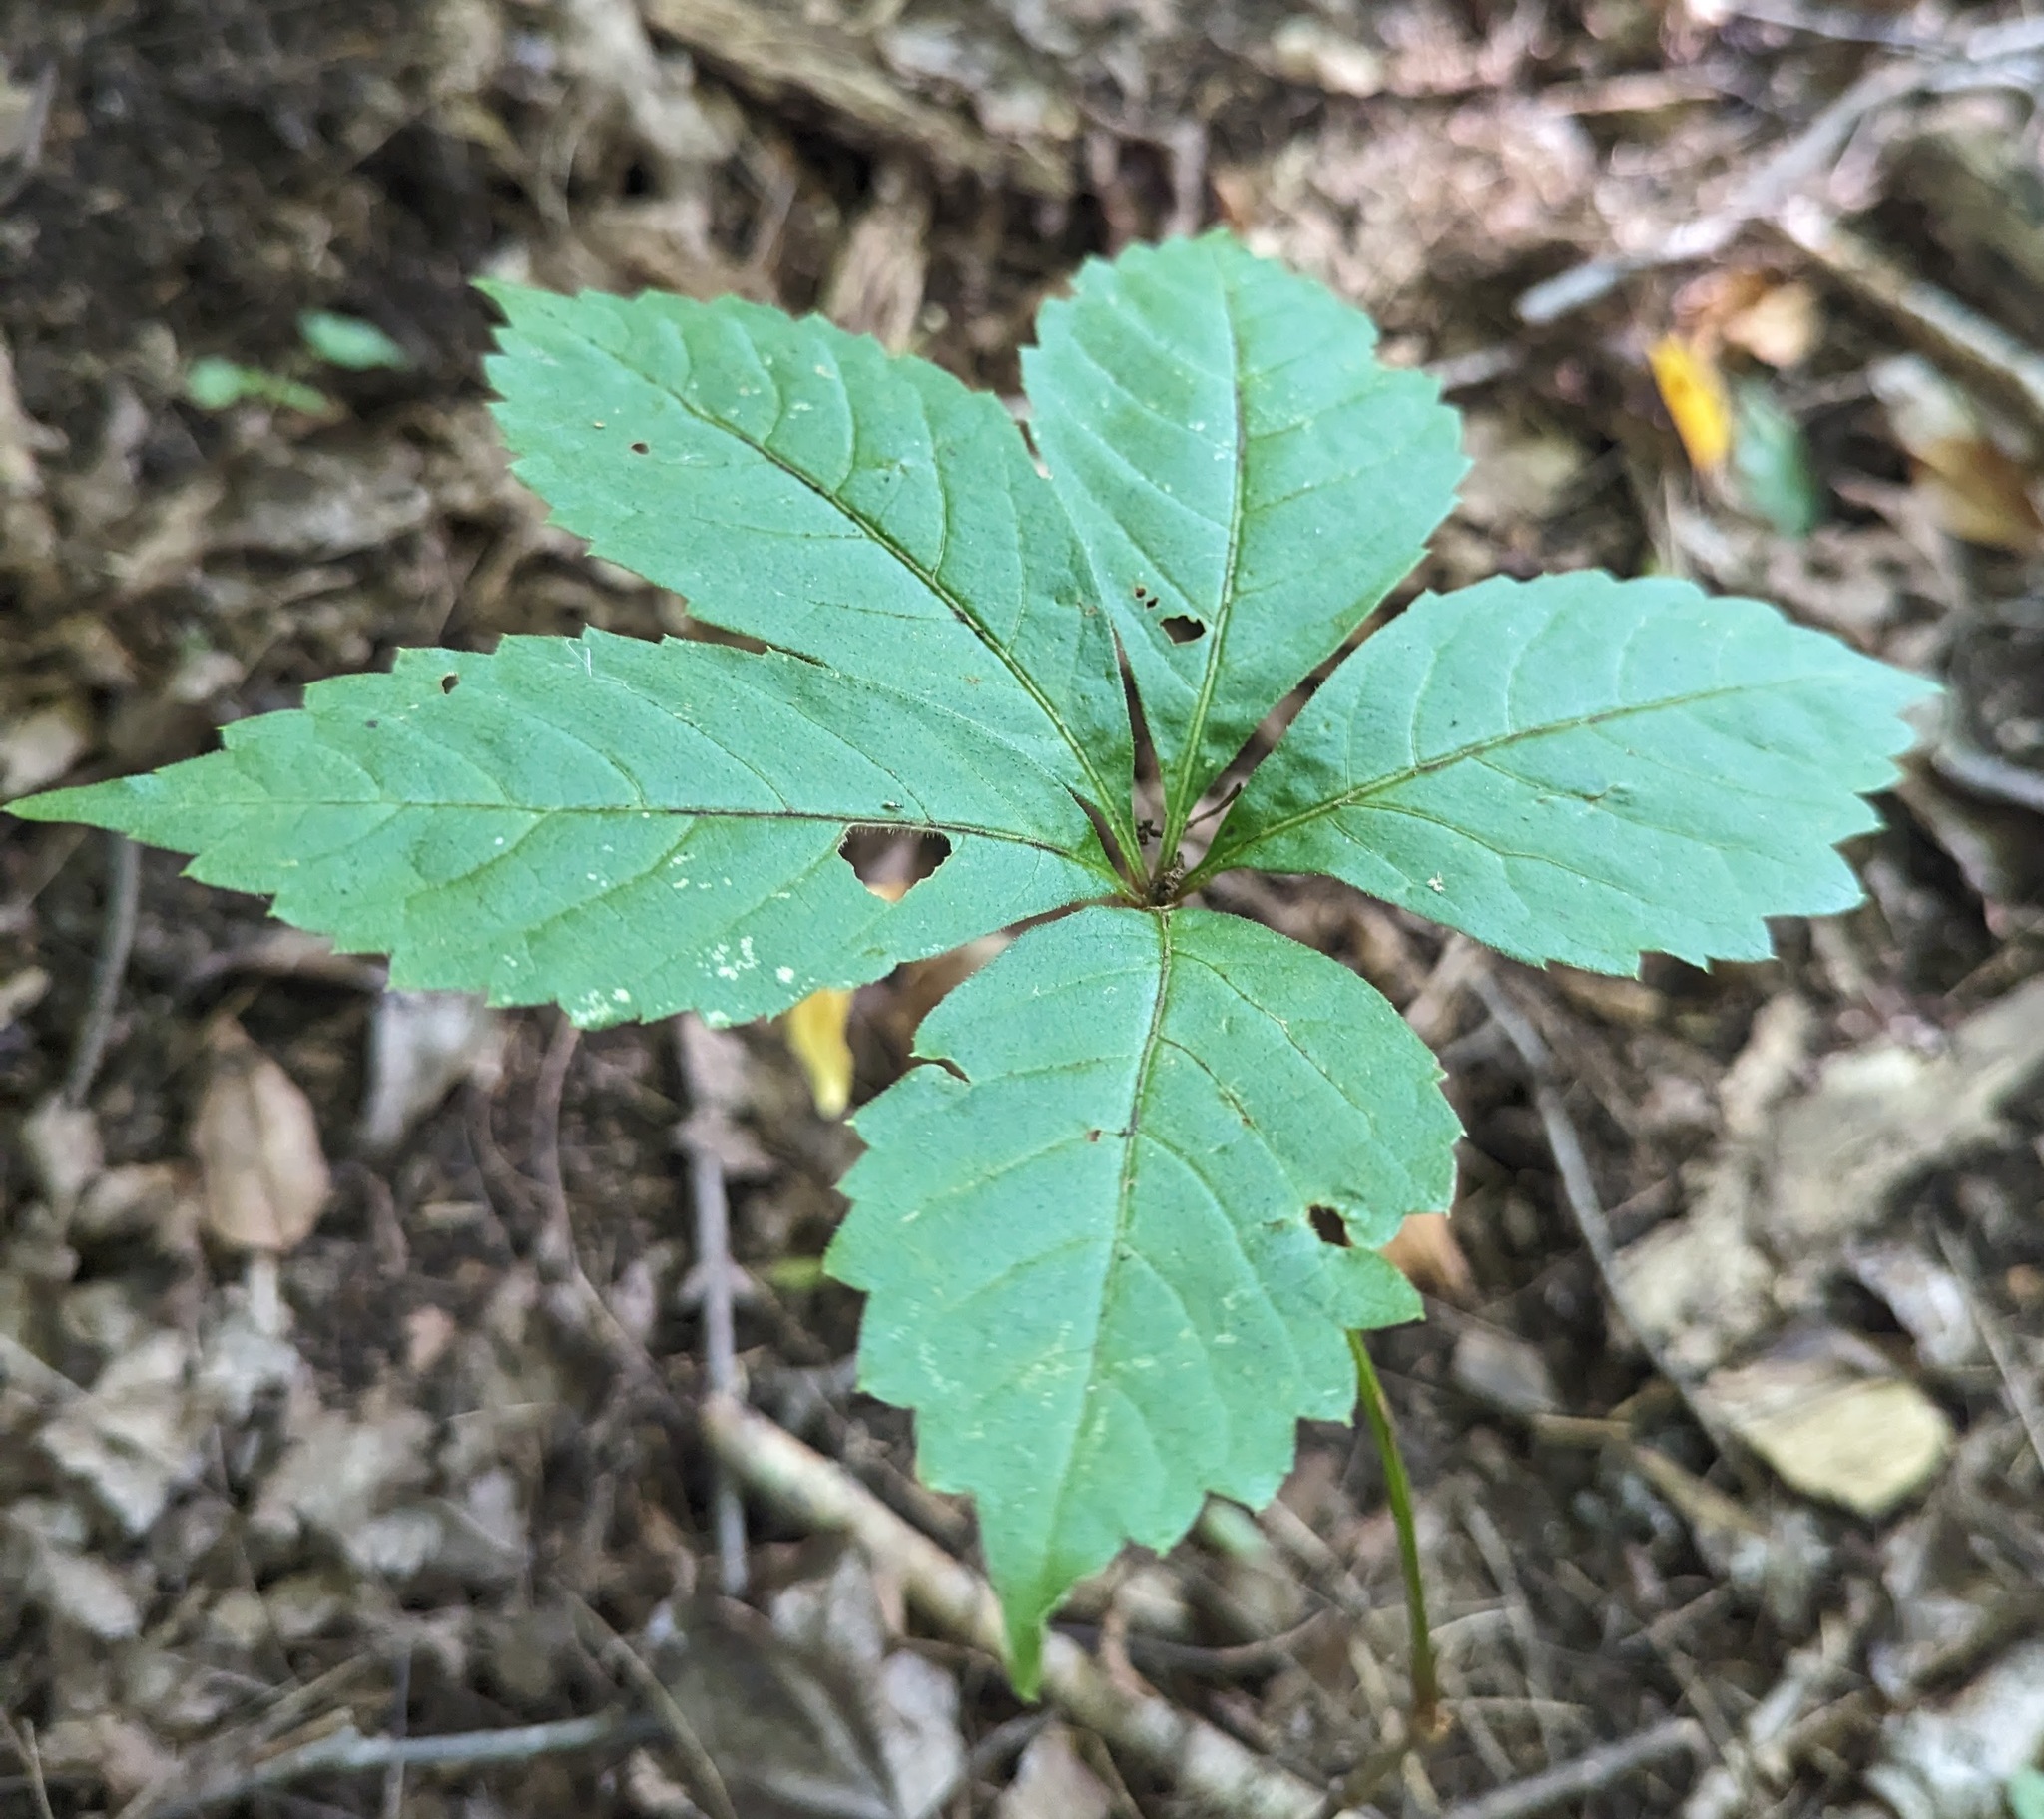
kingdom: Plantae
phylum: Tracheophyta
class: Magnoliopsida
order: Vitales
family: Vitaceae
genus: Parthenocissus
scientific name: Parthenocissus inserta
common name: False virginia-creeper
